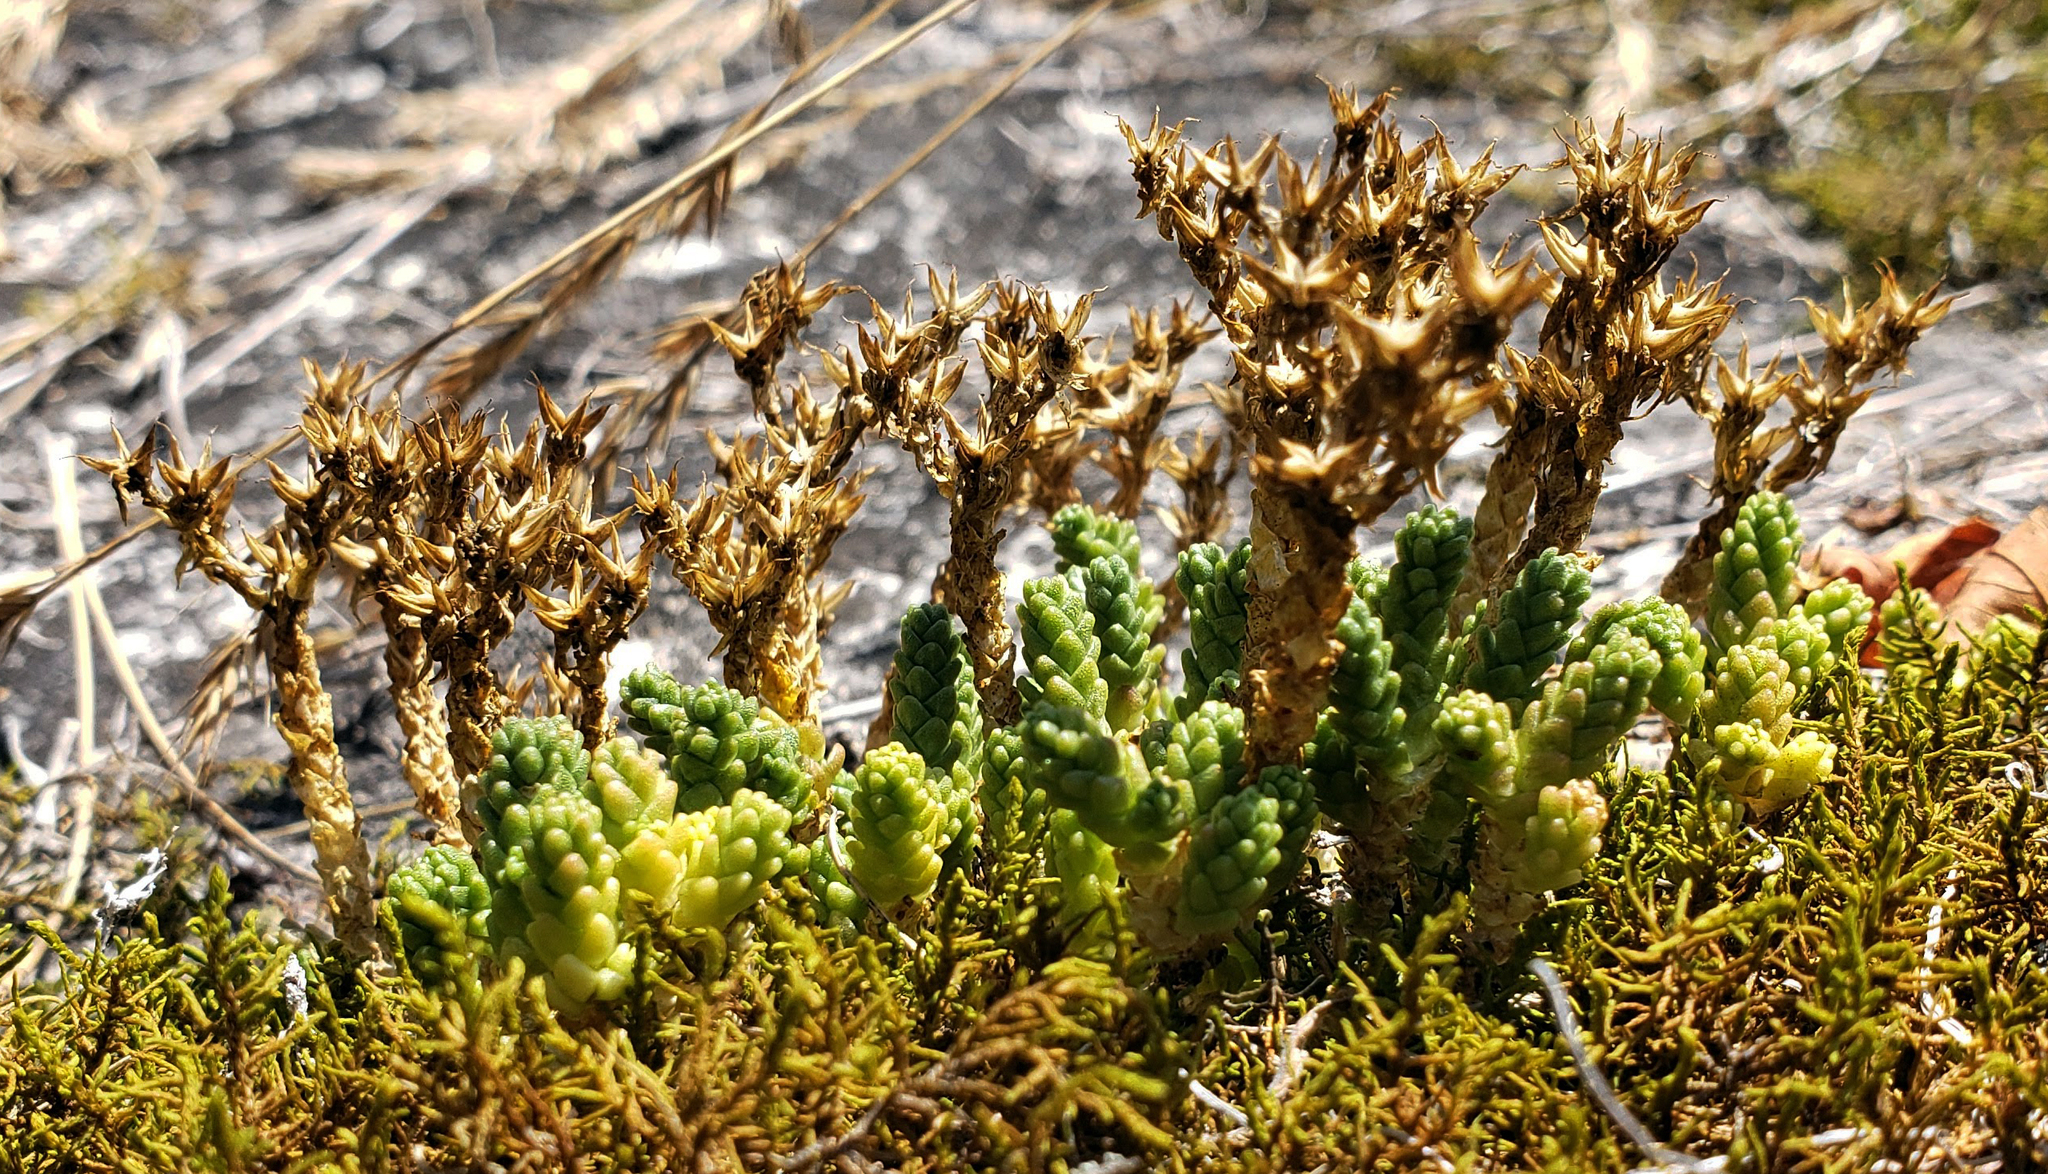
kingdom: Plantae
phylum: Tracheophyta
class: Magnoliopsida
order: Saxifragales
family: Crassulaceae
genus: Sedum
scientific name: Sedum acre
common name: Biting stonecrop
